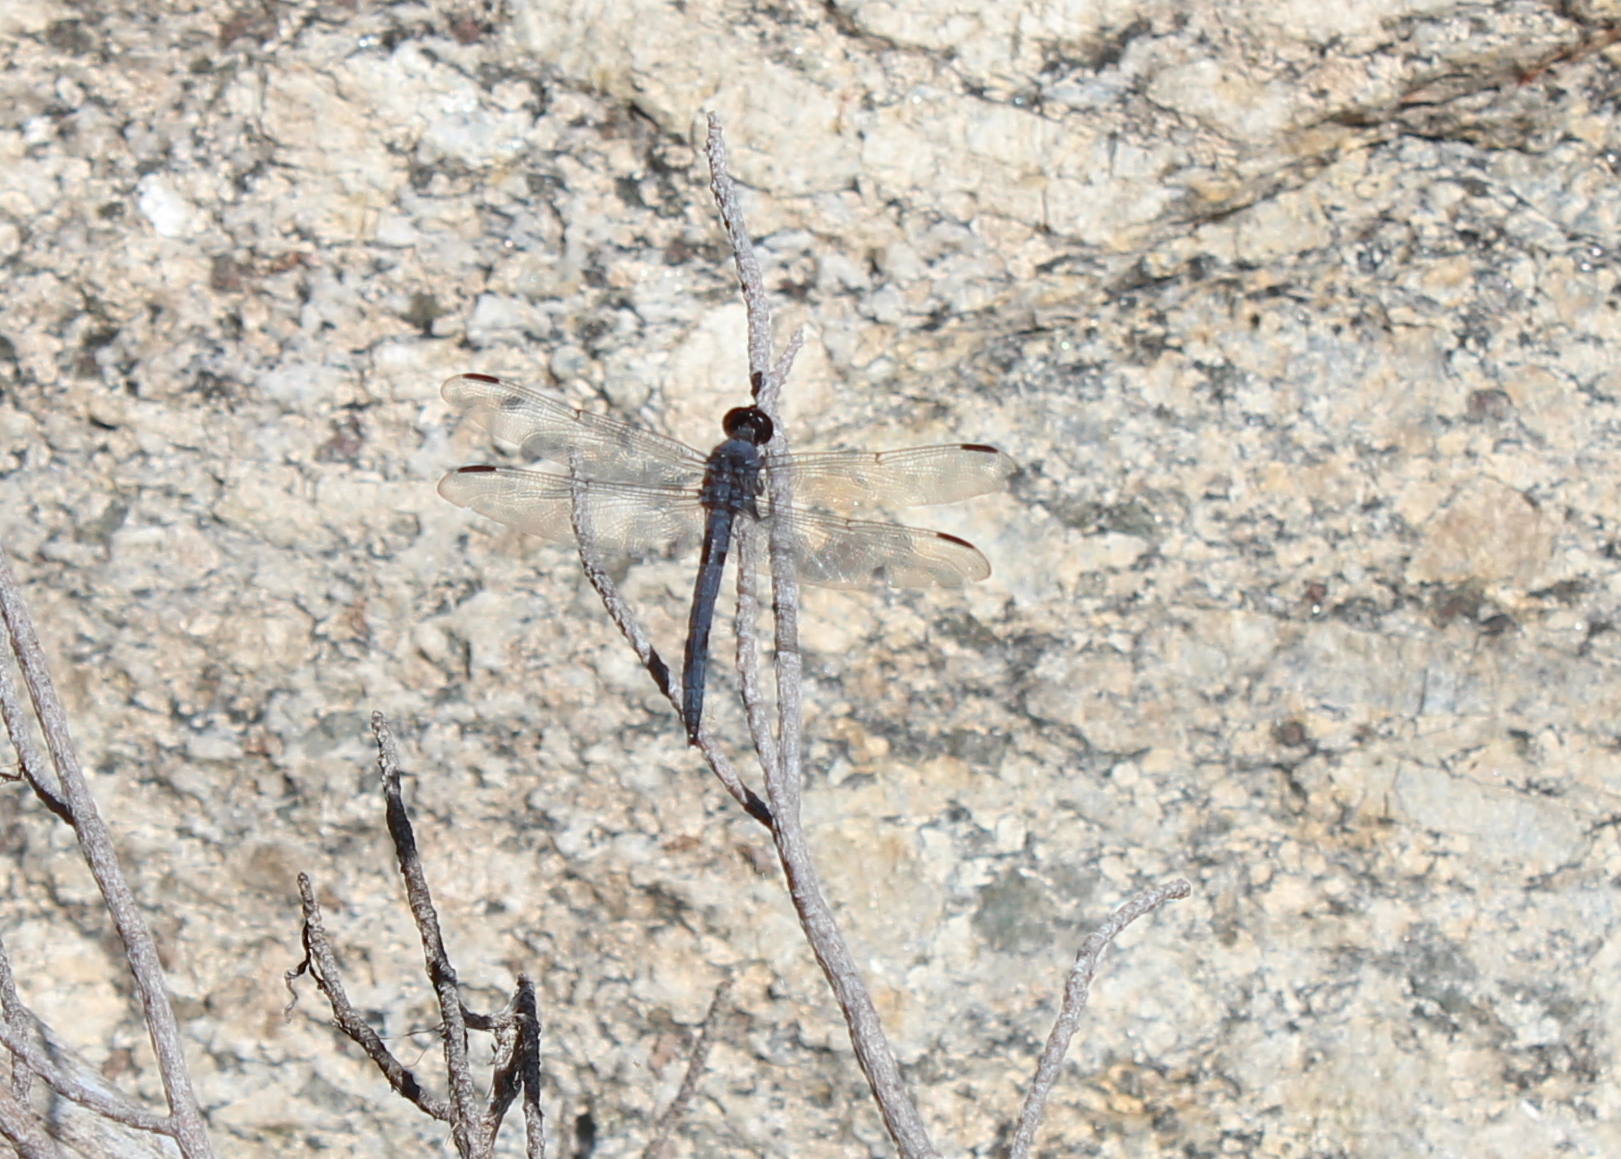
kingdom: Animalia
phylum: Arthropoda
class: Insecta
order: Odonata
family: Libellulidae
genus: Libellula
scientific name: Libellula incesta
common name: Slaty skimmer
